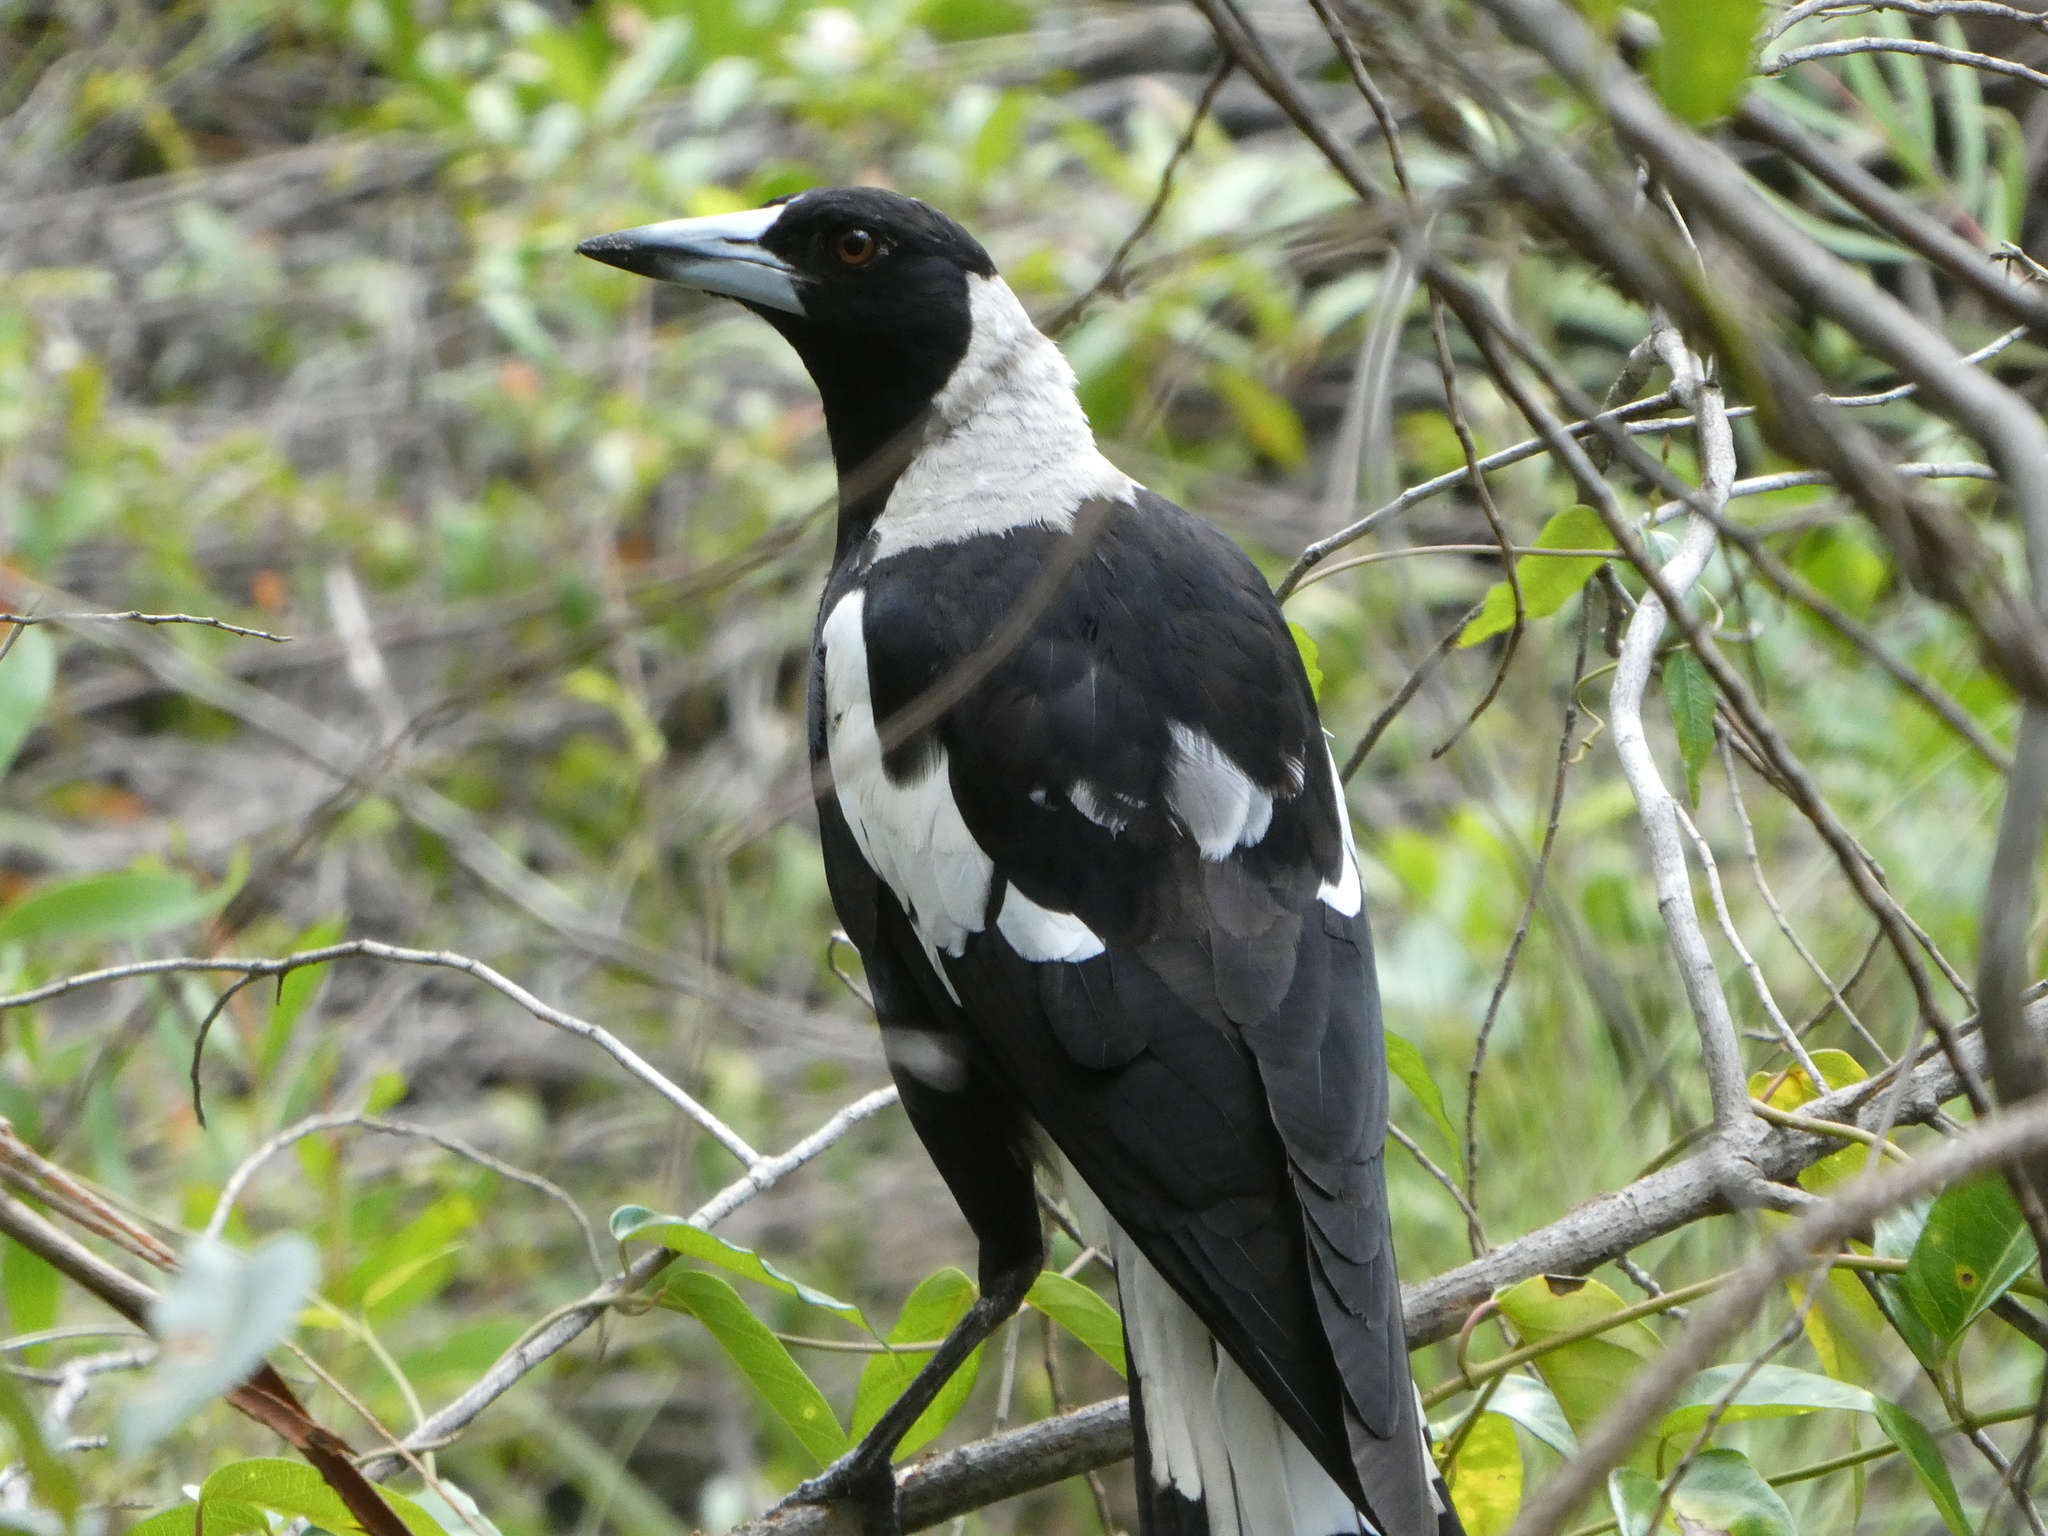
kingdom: Animalia
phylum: Chordata
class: Aves
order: Passeriformes
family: Cracticidae
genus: Gymnorhina
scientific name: Gymnorhina tibicen
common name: Australian magpie
